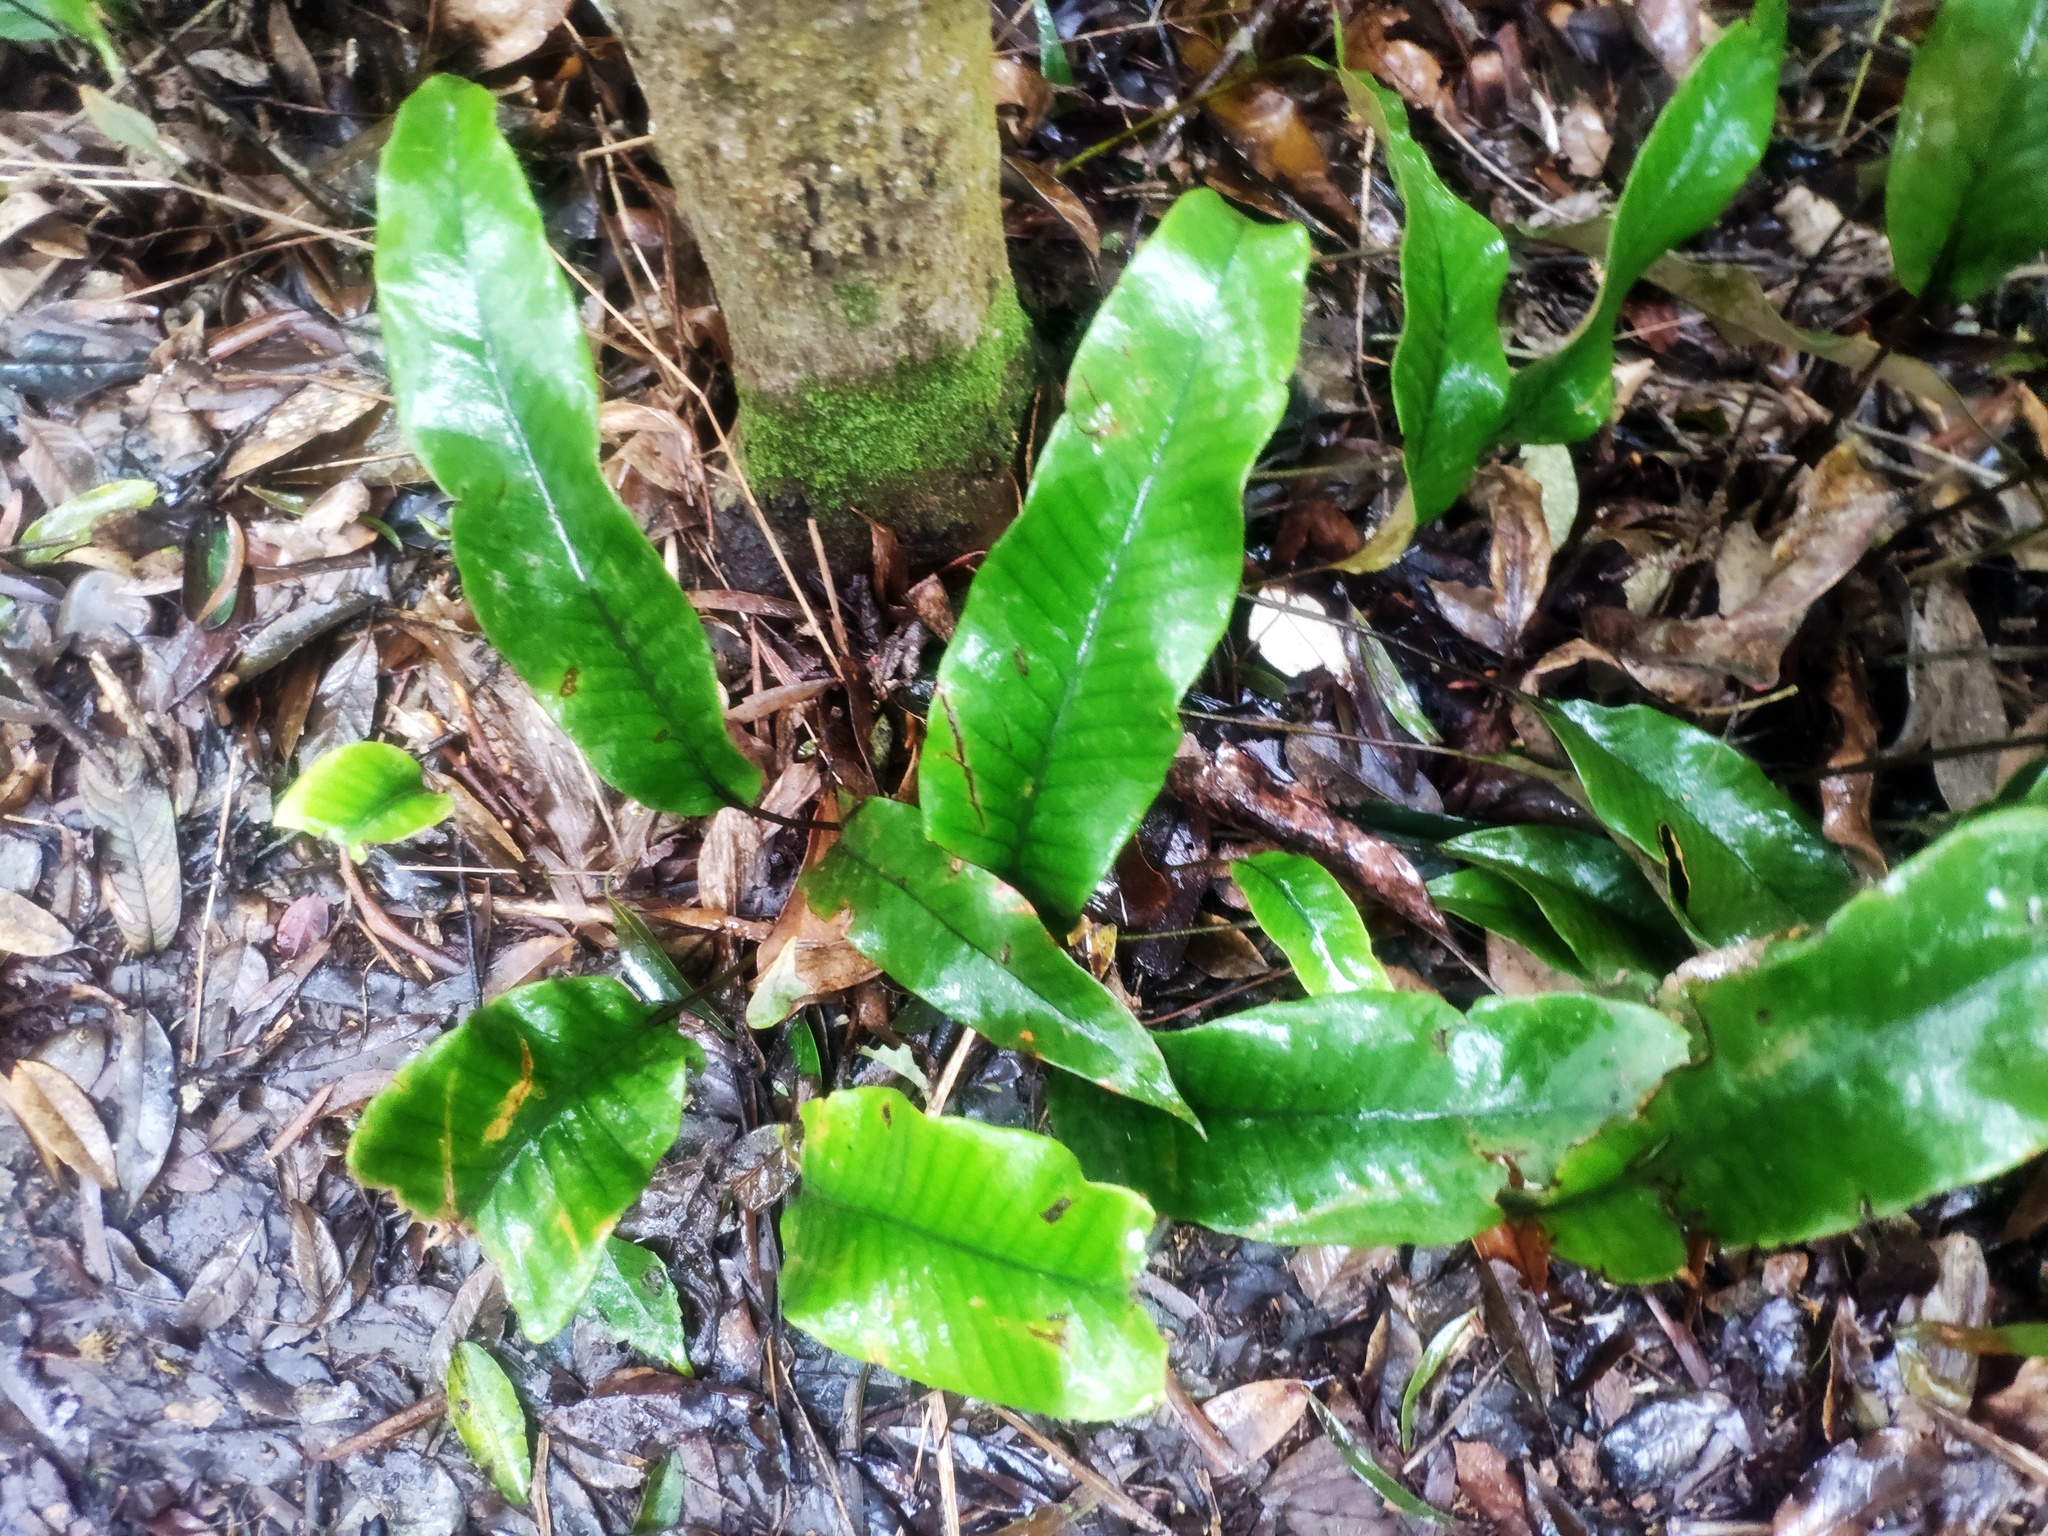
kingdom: Plantae
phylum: Tracheophyta
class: Polypodiopsida
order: Polypodiales
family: Polypodiaceae
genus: Pyrrosia
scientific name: Pyrrosia lingua
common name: Felt fern
